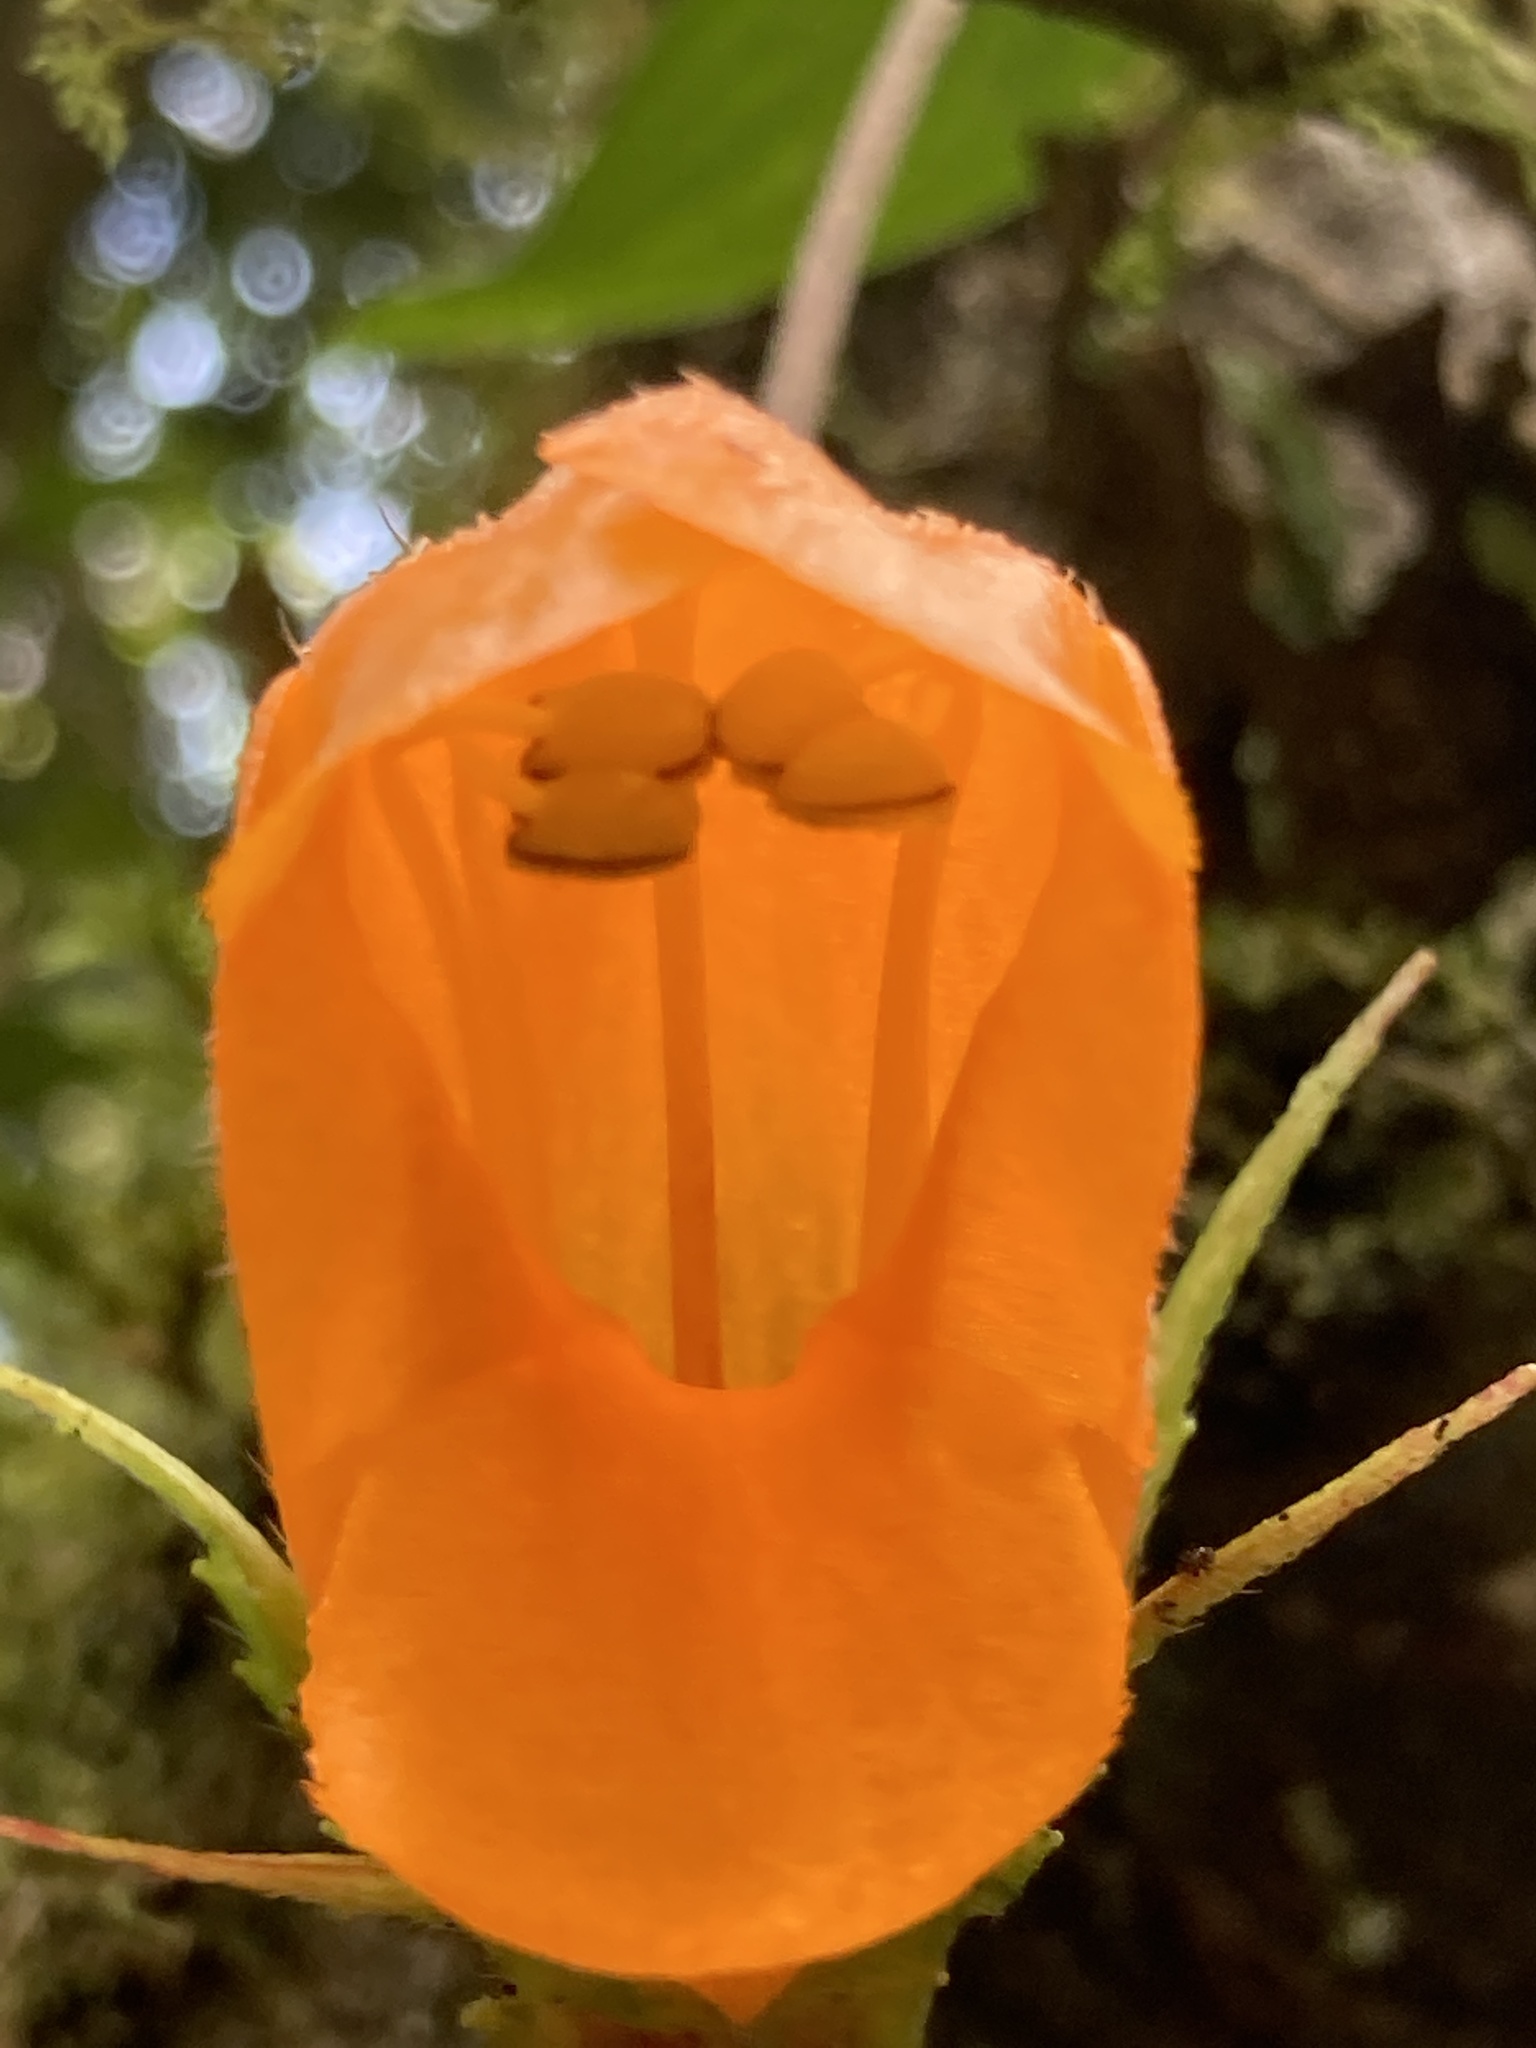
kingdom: Plantae
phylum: Tracheophyta
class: Magnoliopsida
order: Lamiales
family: Gesneriaceae
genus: Columnea
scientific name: Columnea strigosa
